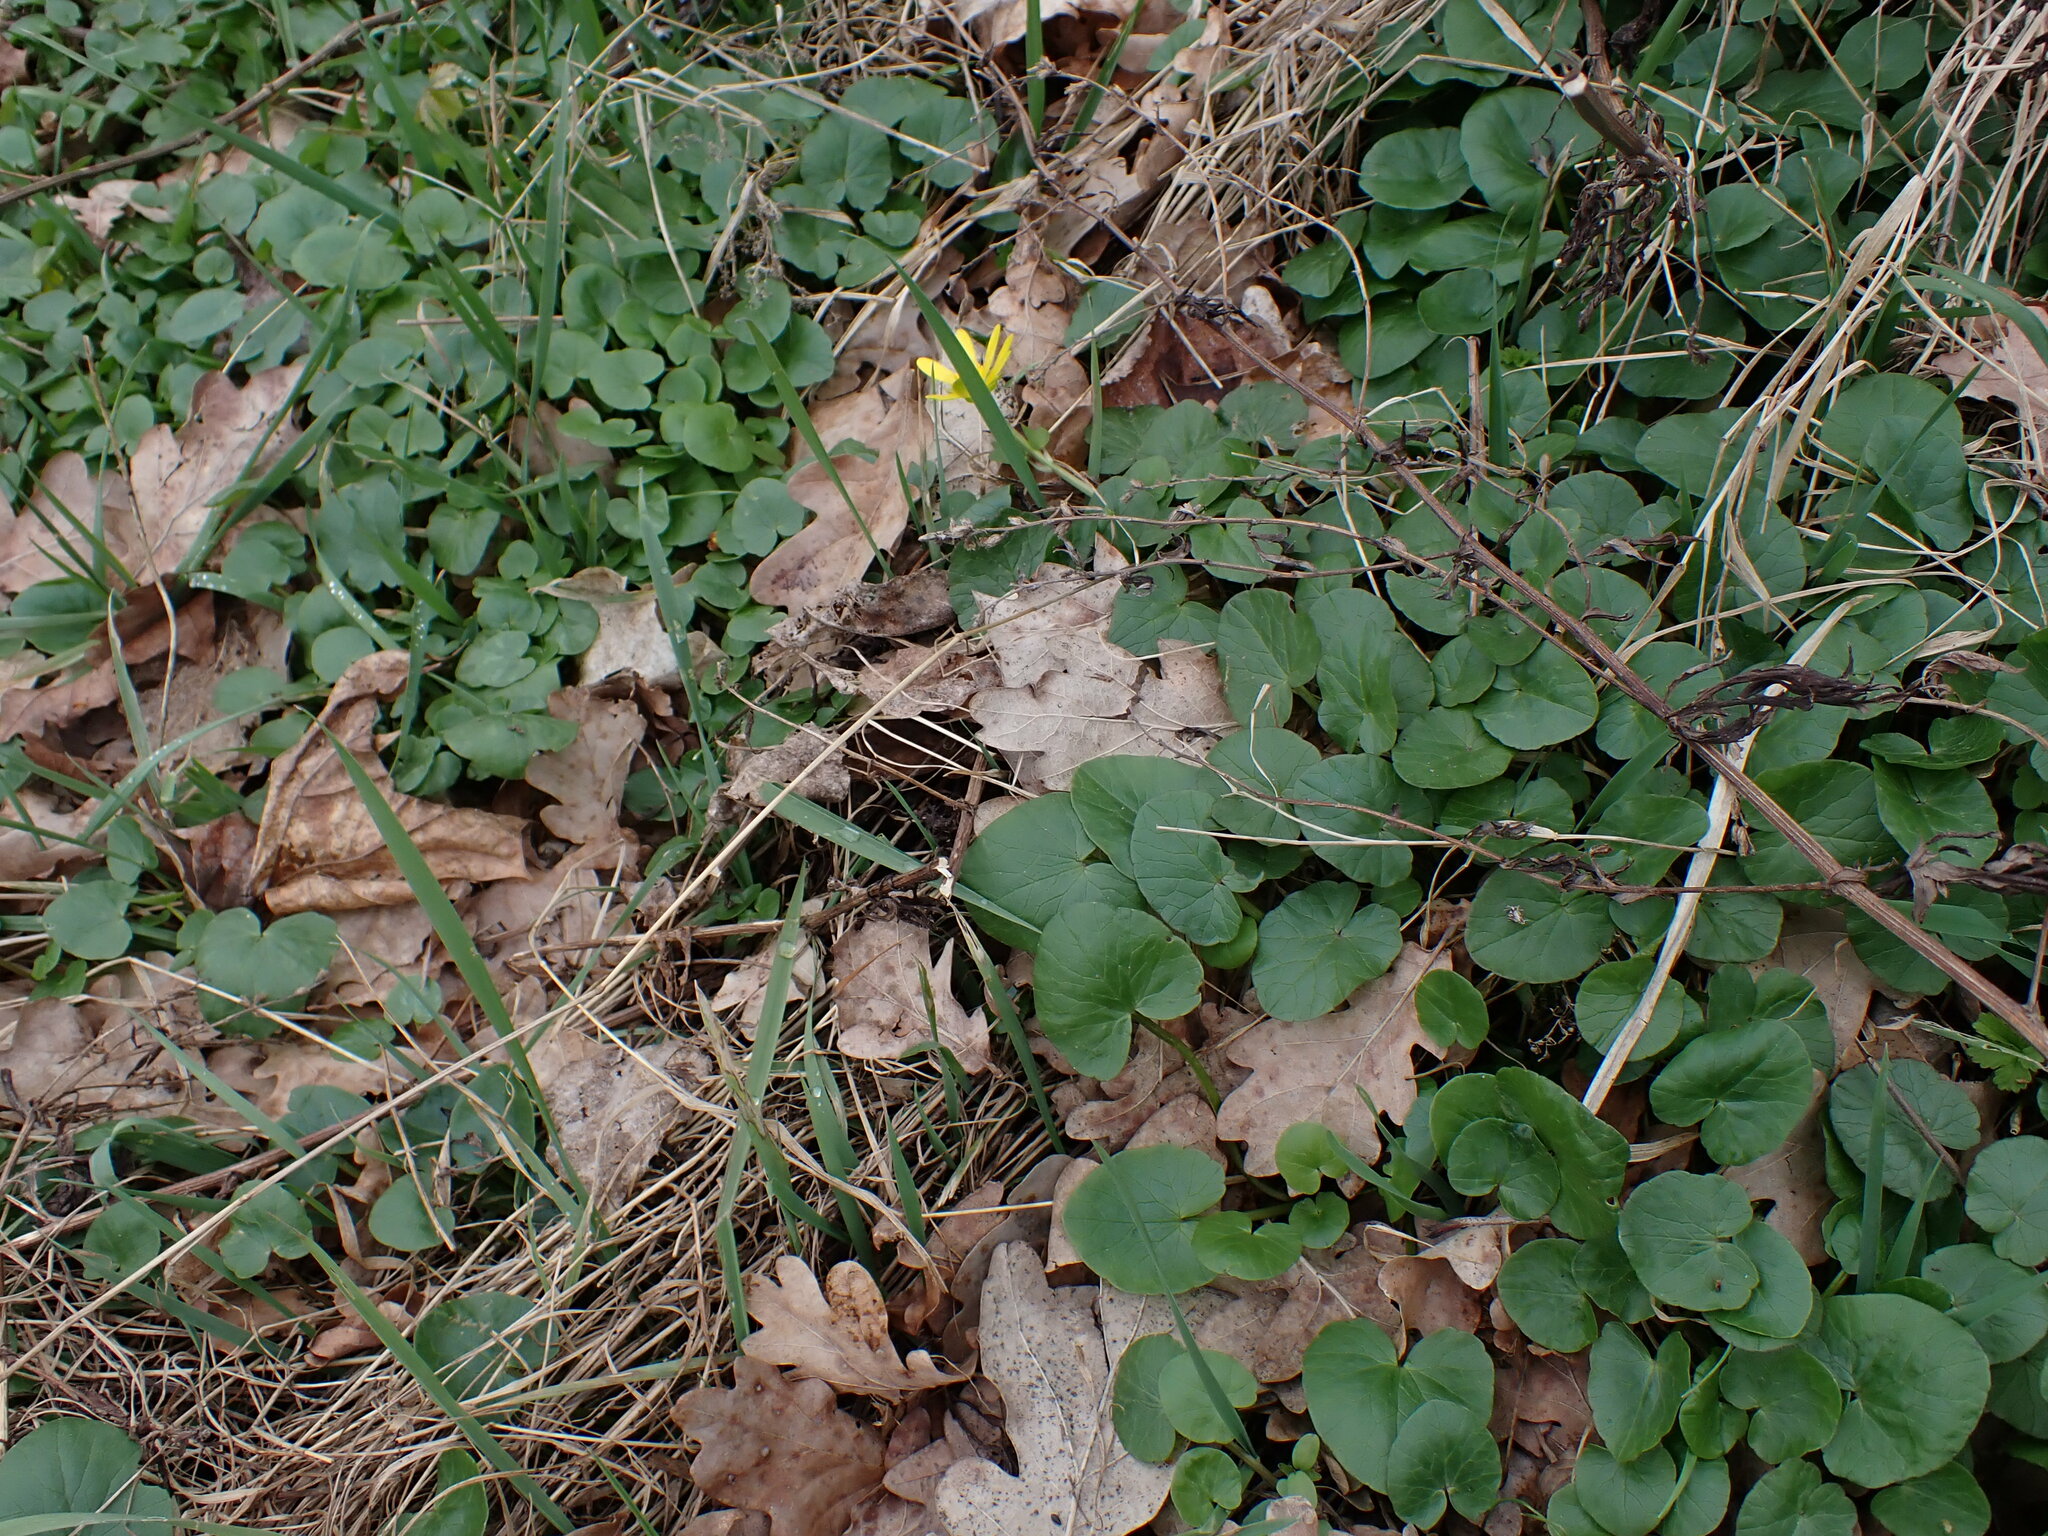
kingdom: Animalia
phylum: Arthropoda
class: Insecta
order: Hemiptera
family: Cicadellidae
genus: Mocydia
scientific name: Mocydia crocea
